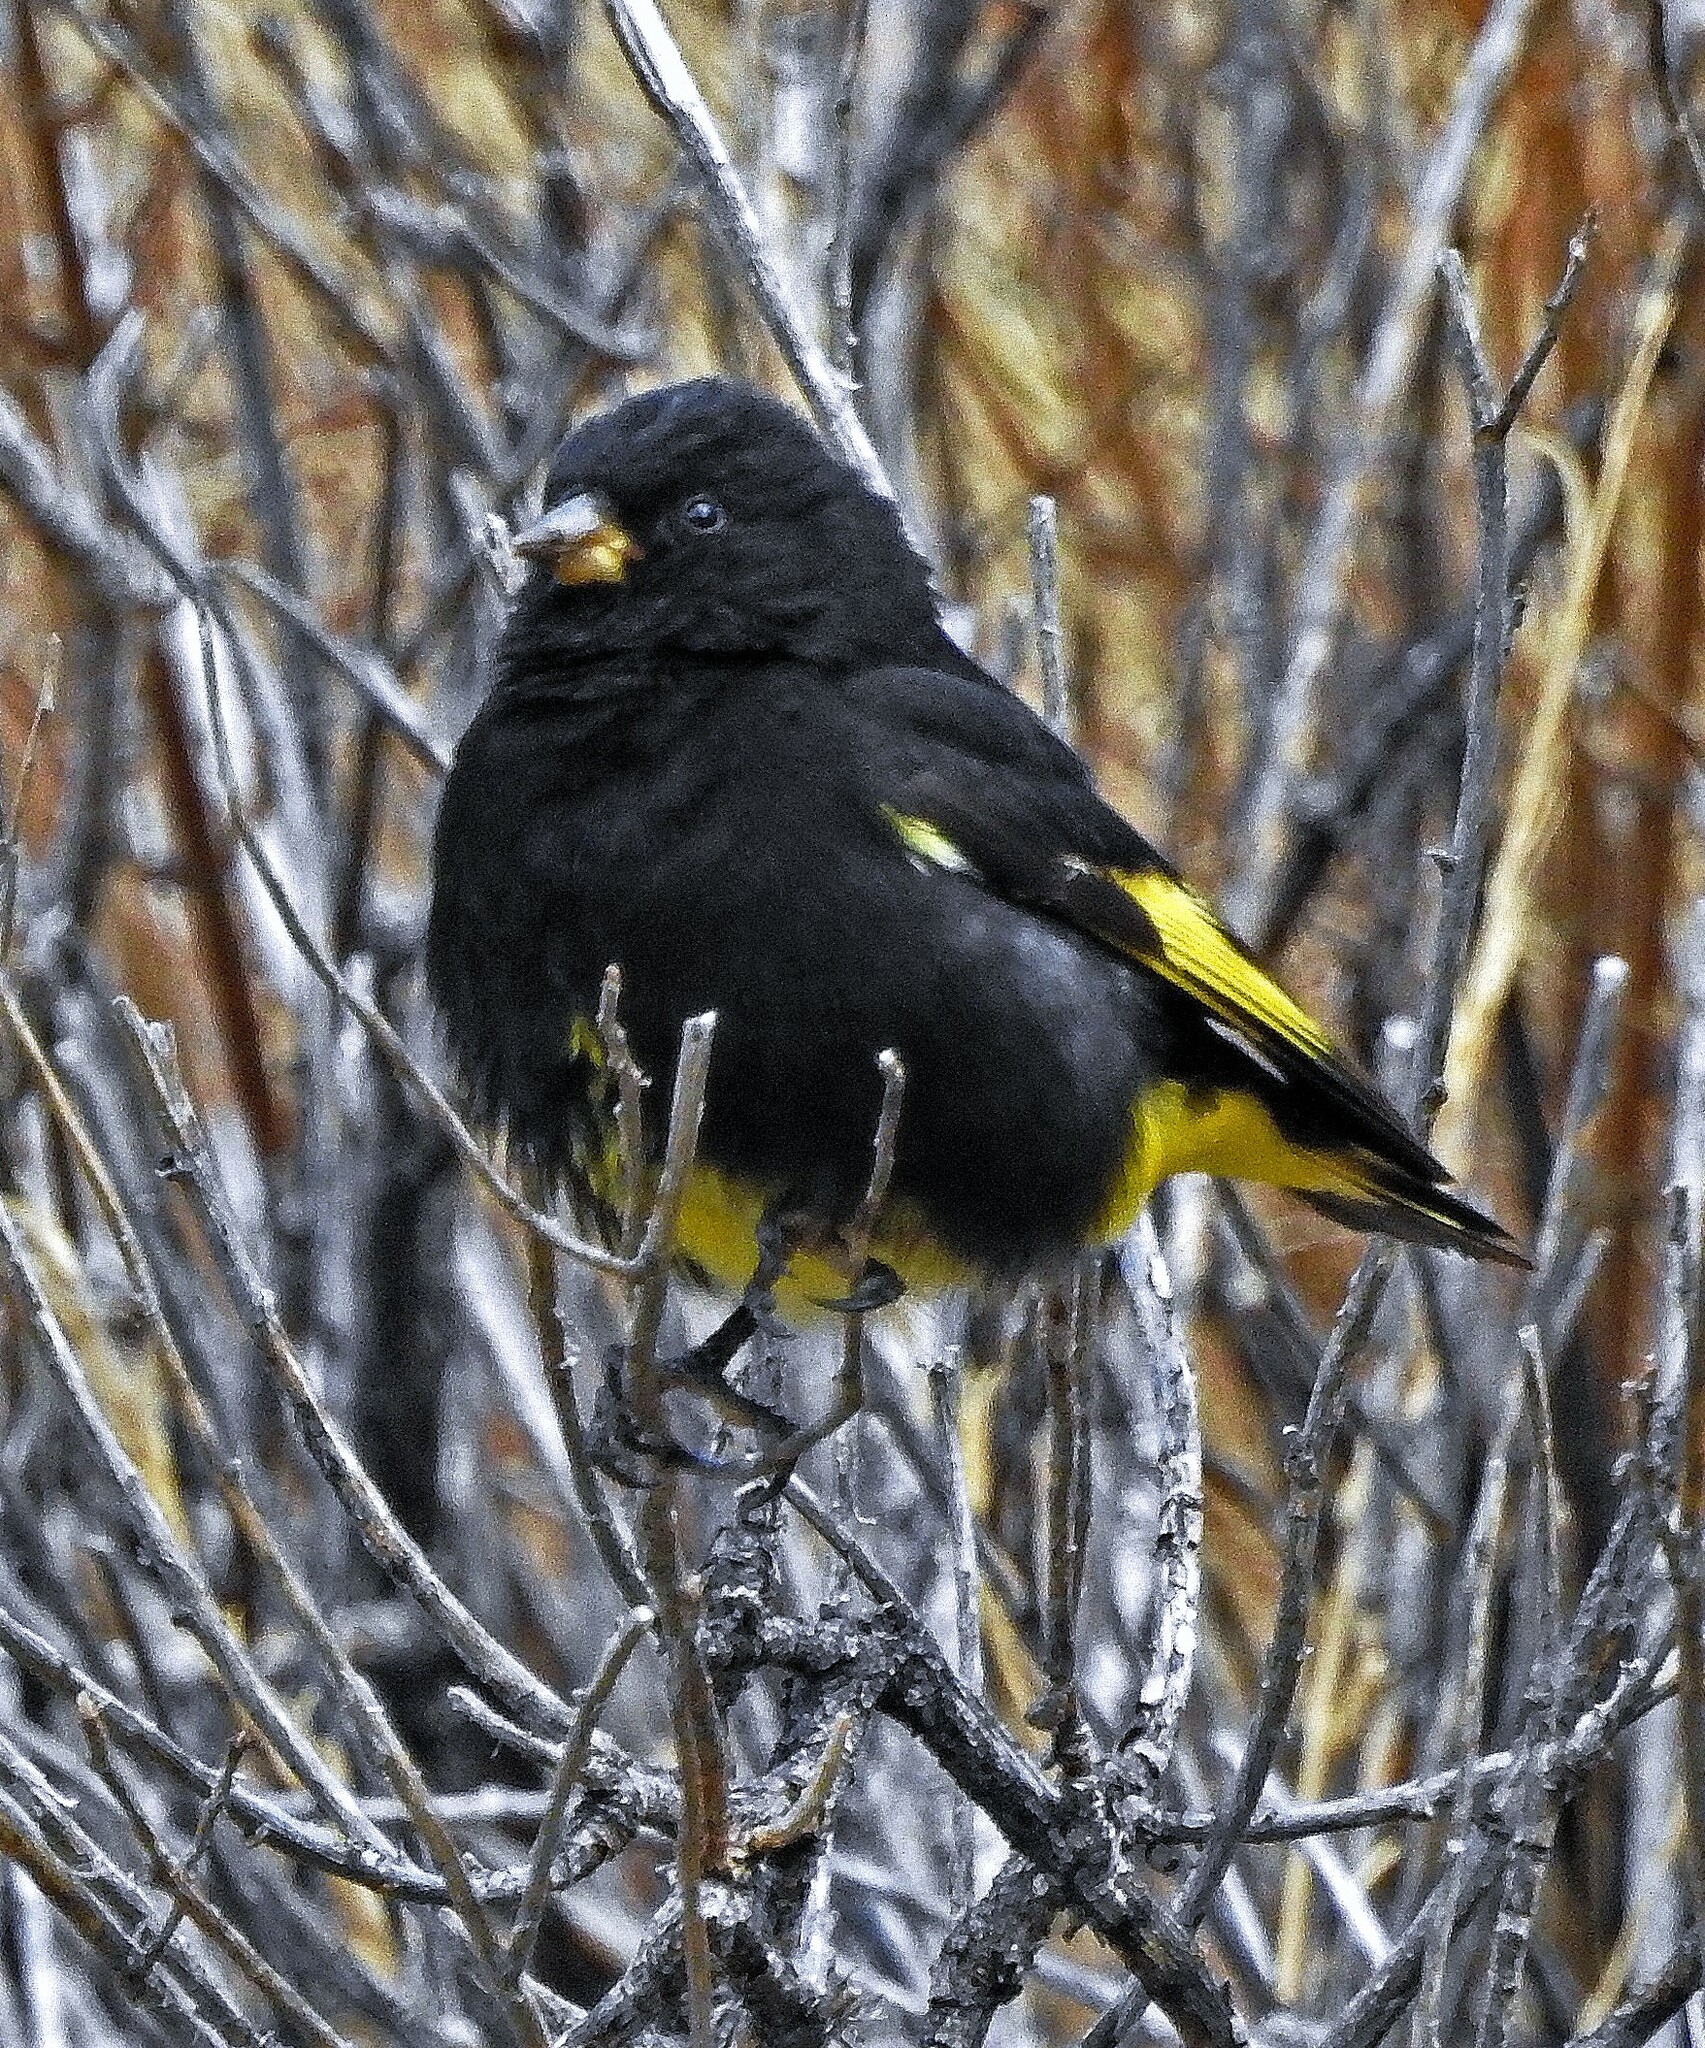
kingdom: Animalia
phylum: Chordata
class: Aves
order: Passeriformes
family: Fringillidae
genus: Spinus
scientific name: Spinus atratus
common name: Black siskin
